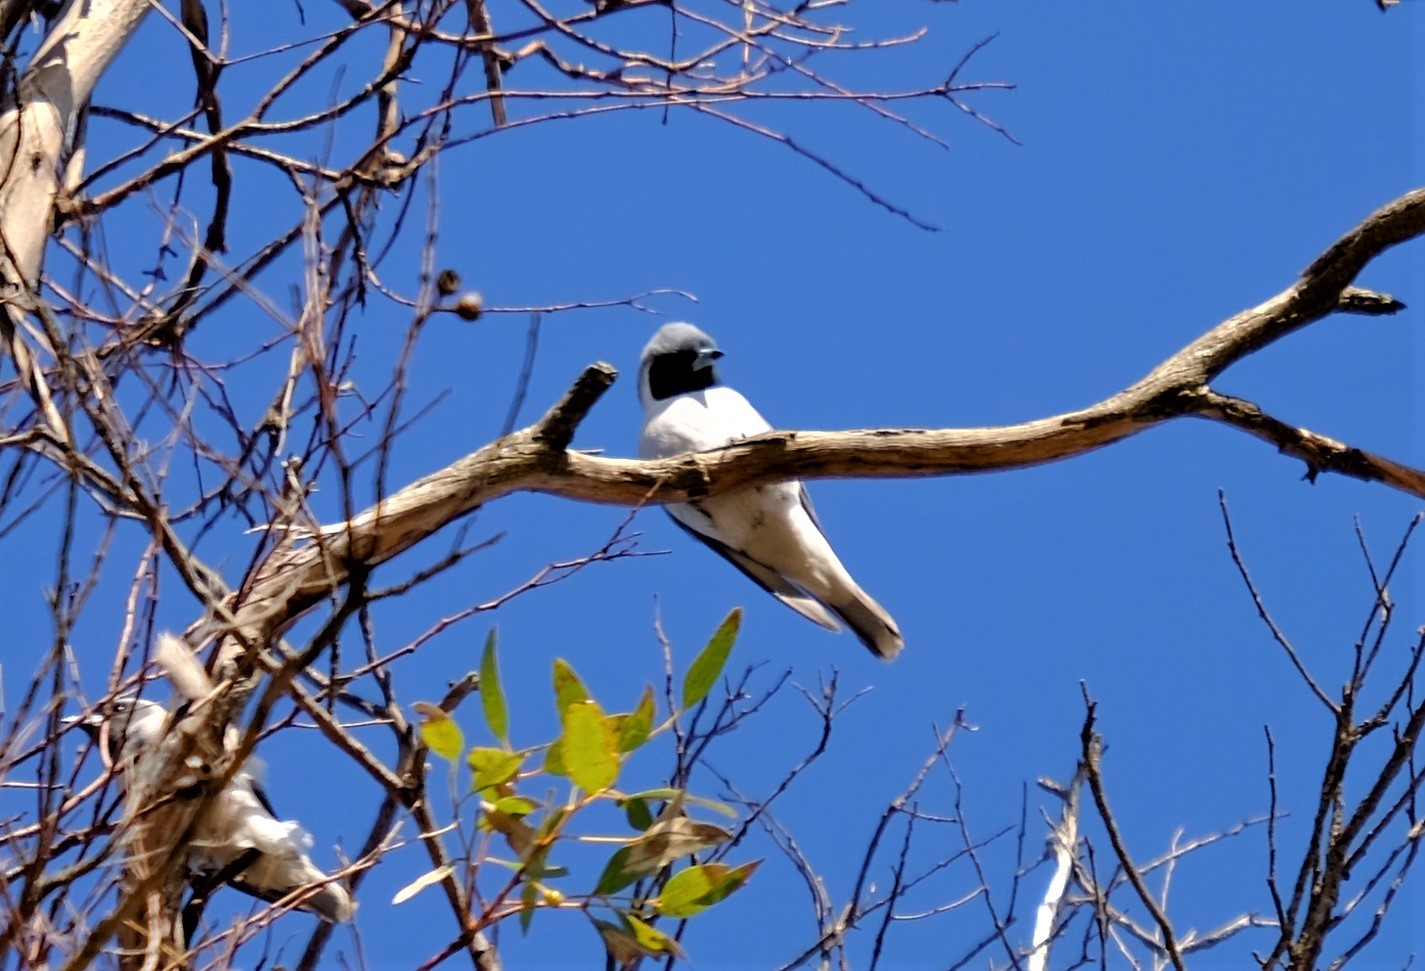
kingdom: Animalia
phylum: Chordata
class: Aves
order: Passeriformes
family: Artamidae
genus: Artamus
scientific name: Artamus personatus
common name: Masked woodswallow
